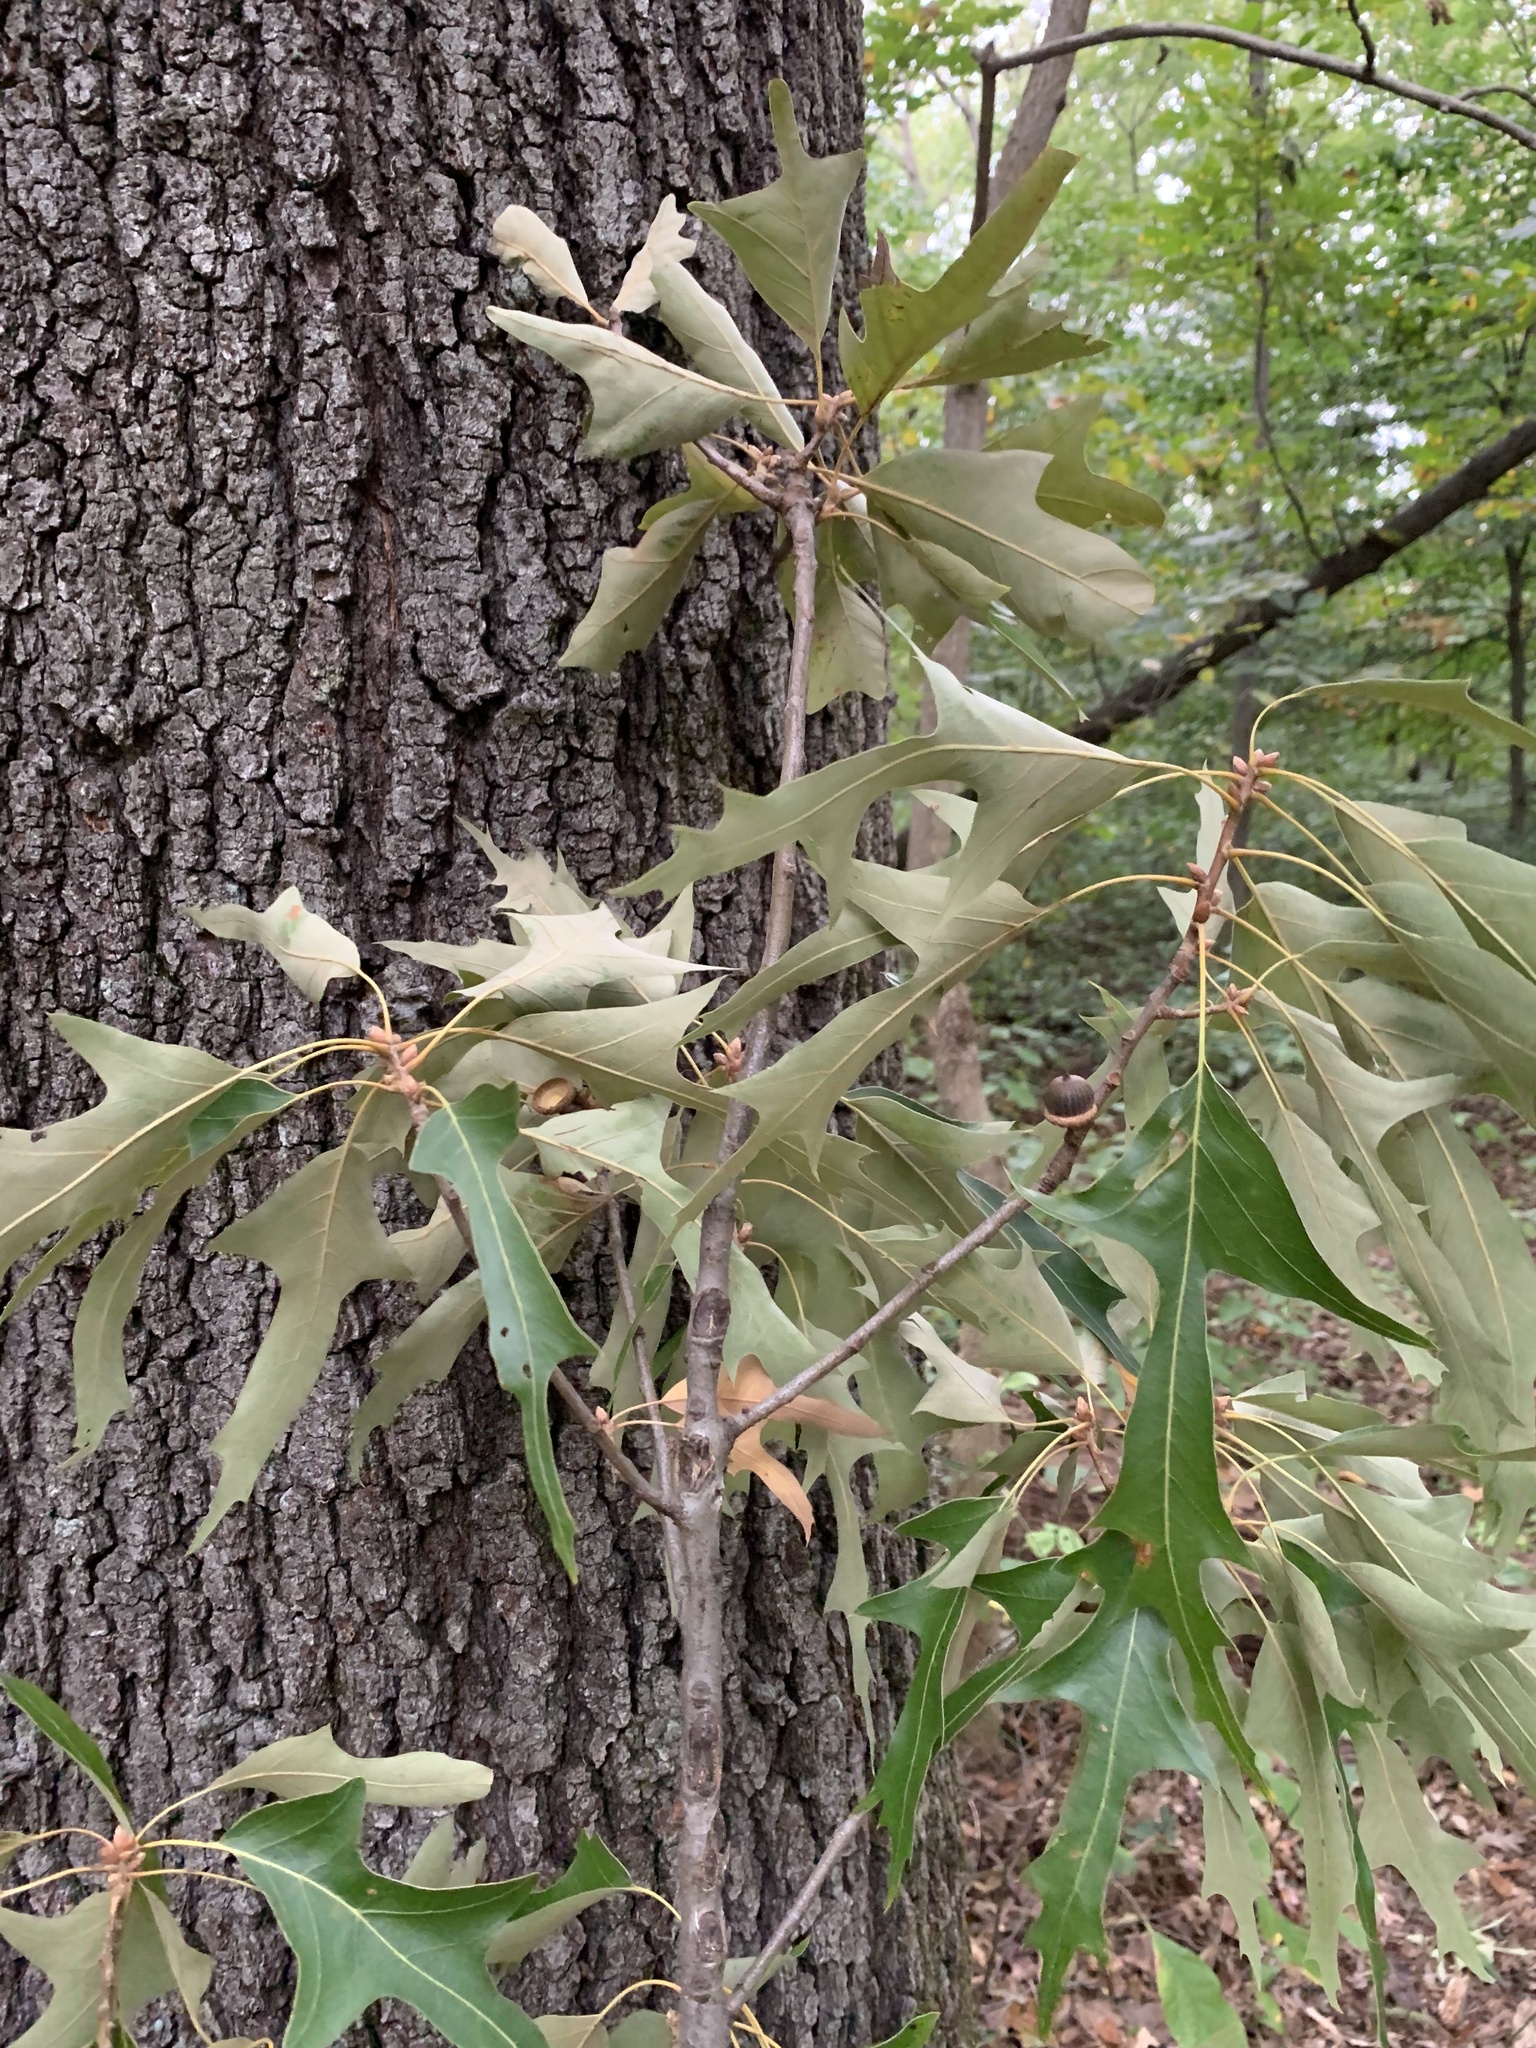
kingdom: Plantae
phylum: Tracheophyta
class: Magnoliopsida
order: Fagales
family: Fagaceae
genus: Quercus
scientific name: Quercus falcata
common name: Southern red oak
